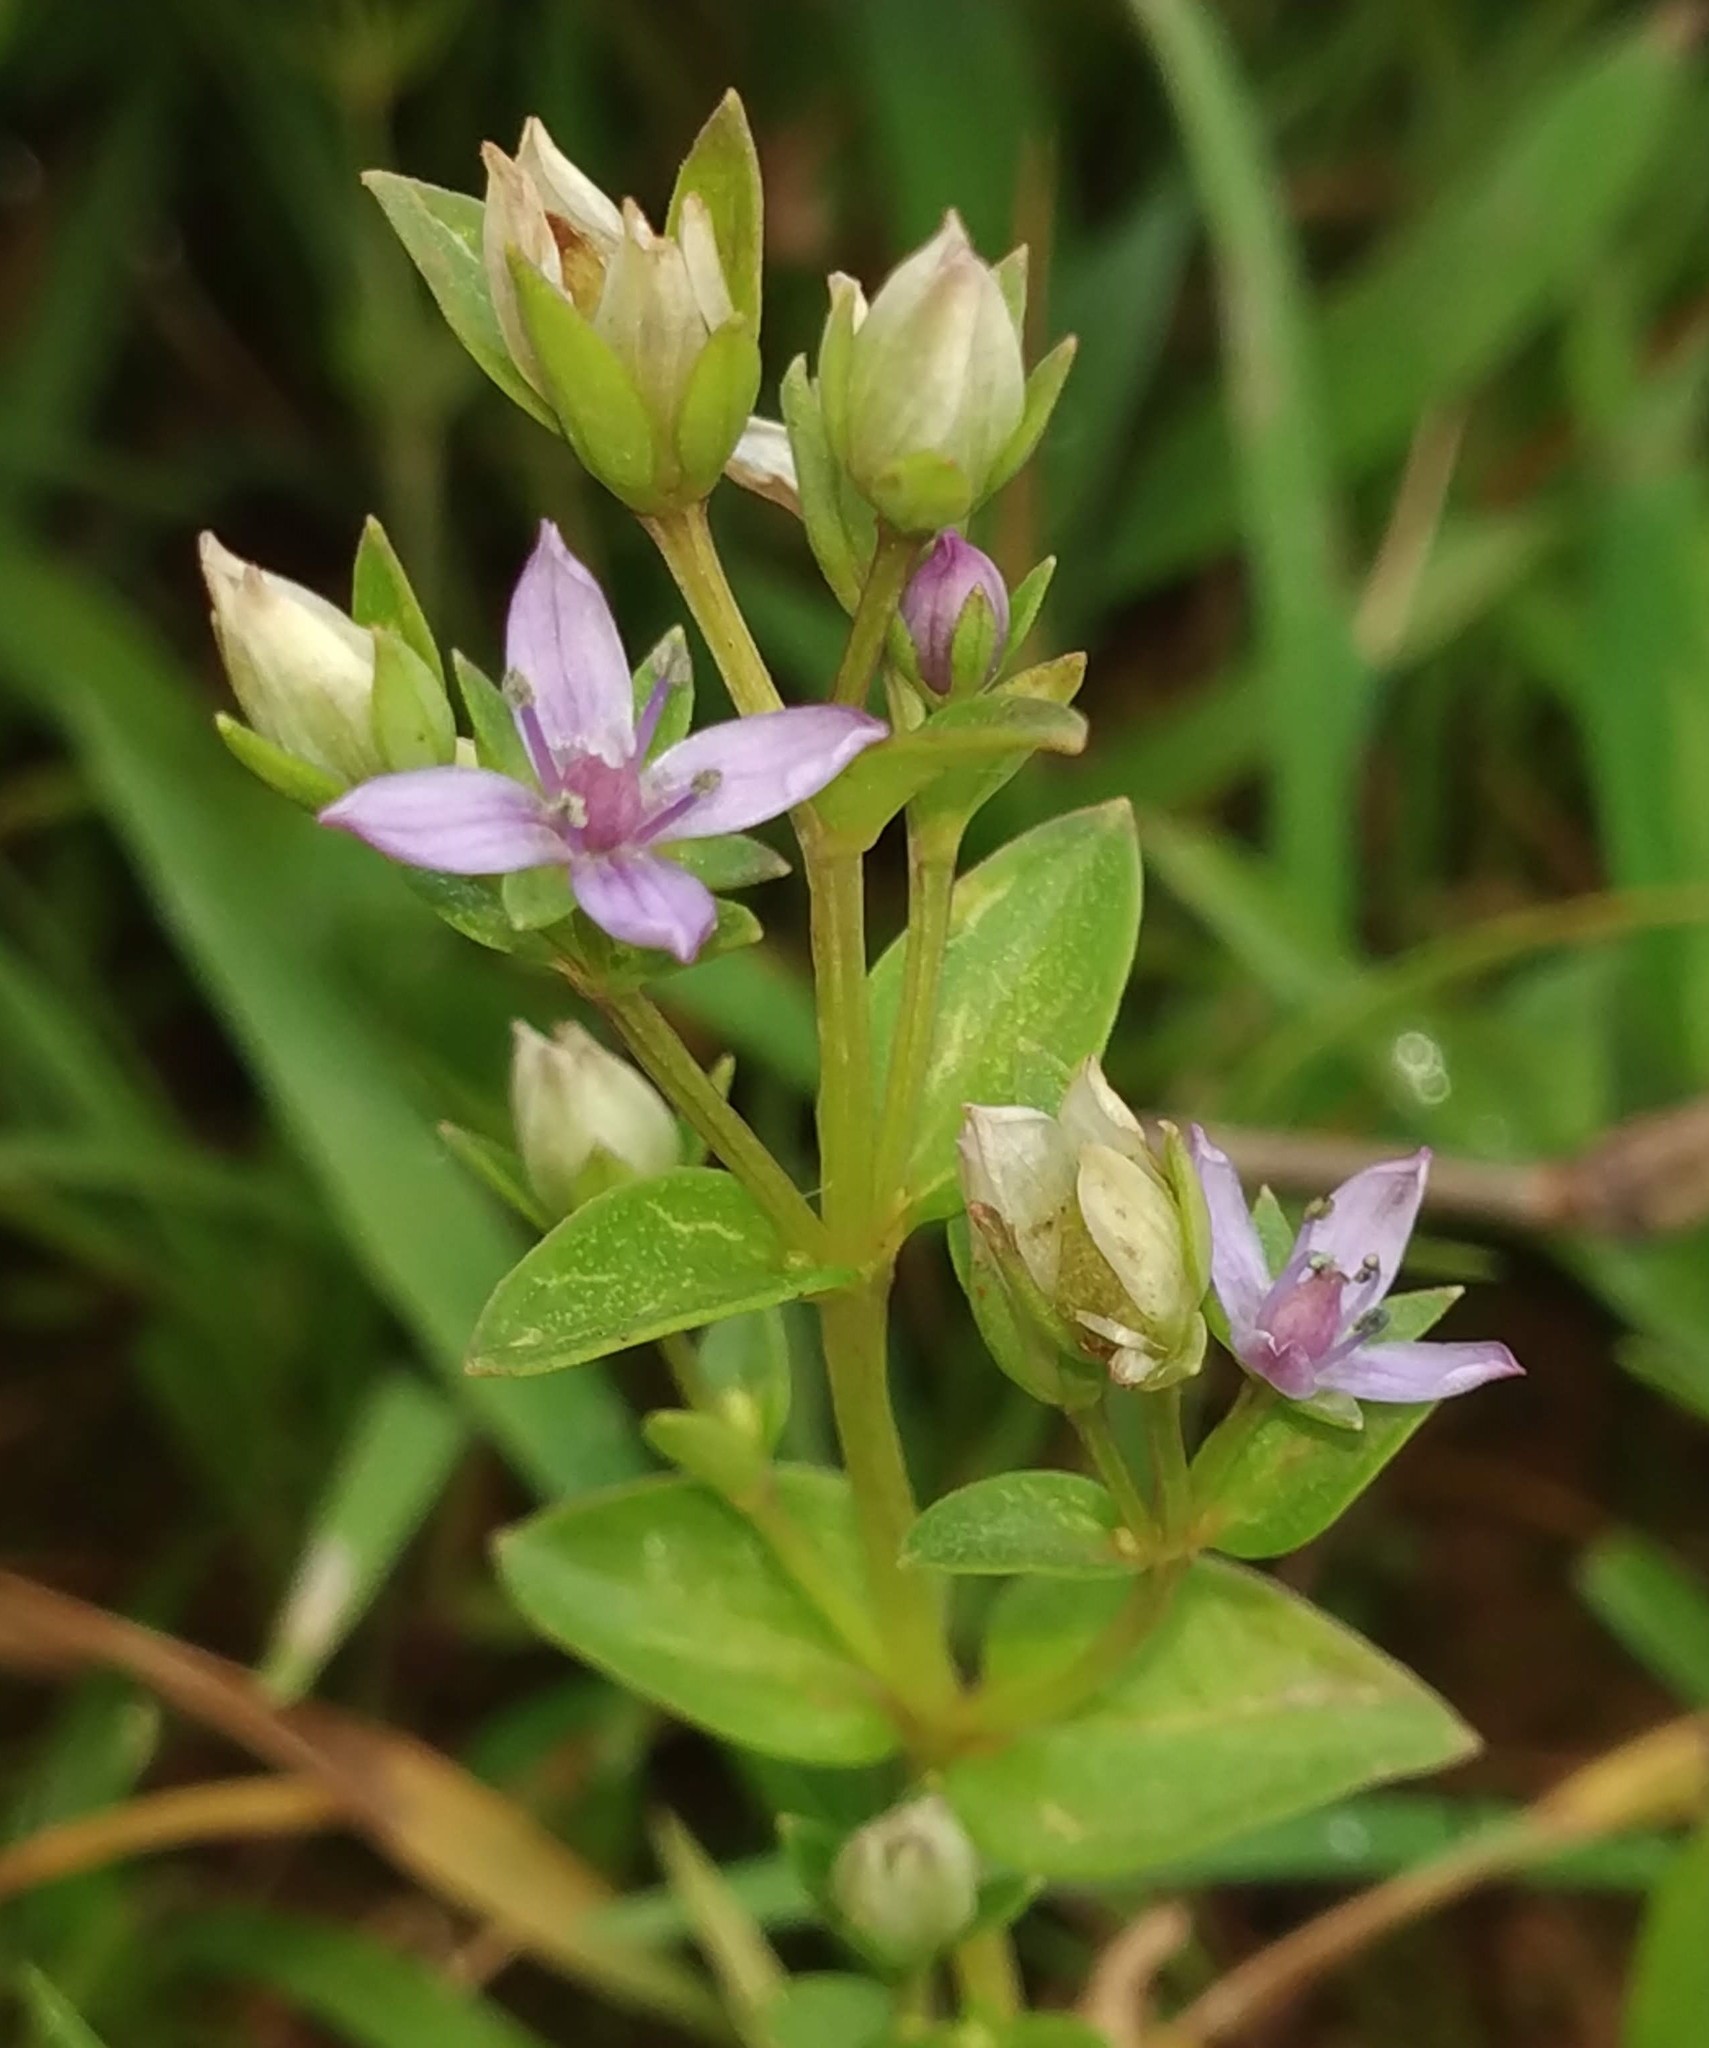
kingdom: Plantae
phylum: Tracheophyta
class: Magnoliopsida
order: Gentianales
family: Gentianaceae
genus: Lomatogonium
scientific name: Lomatogonium minus
